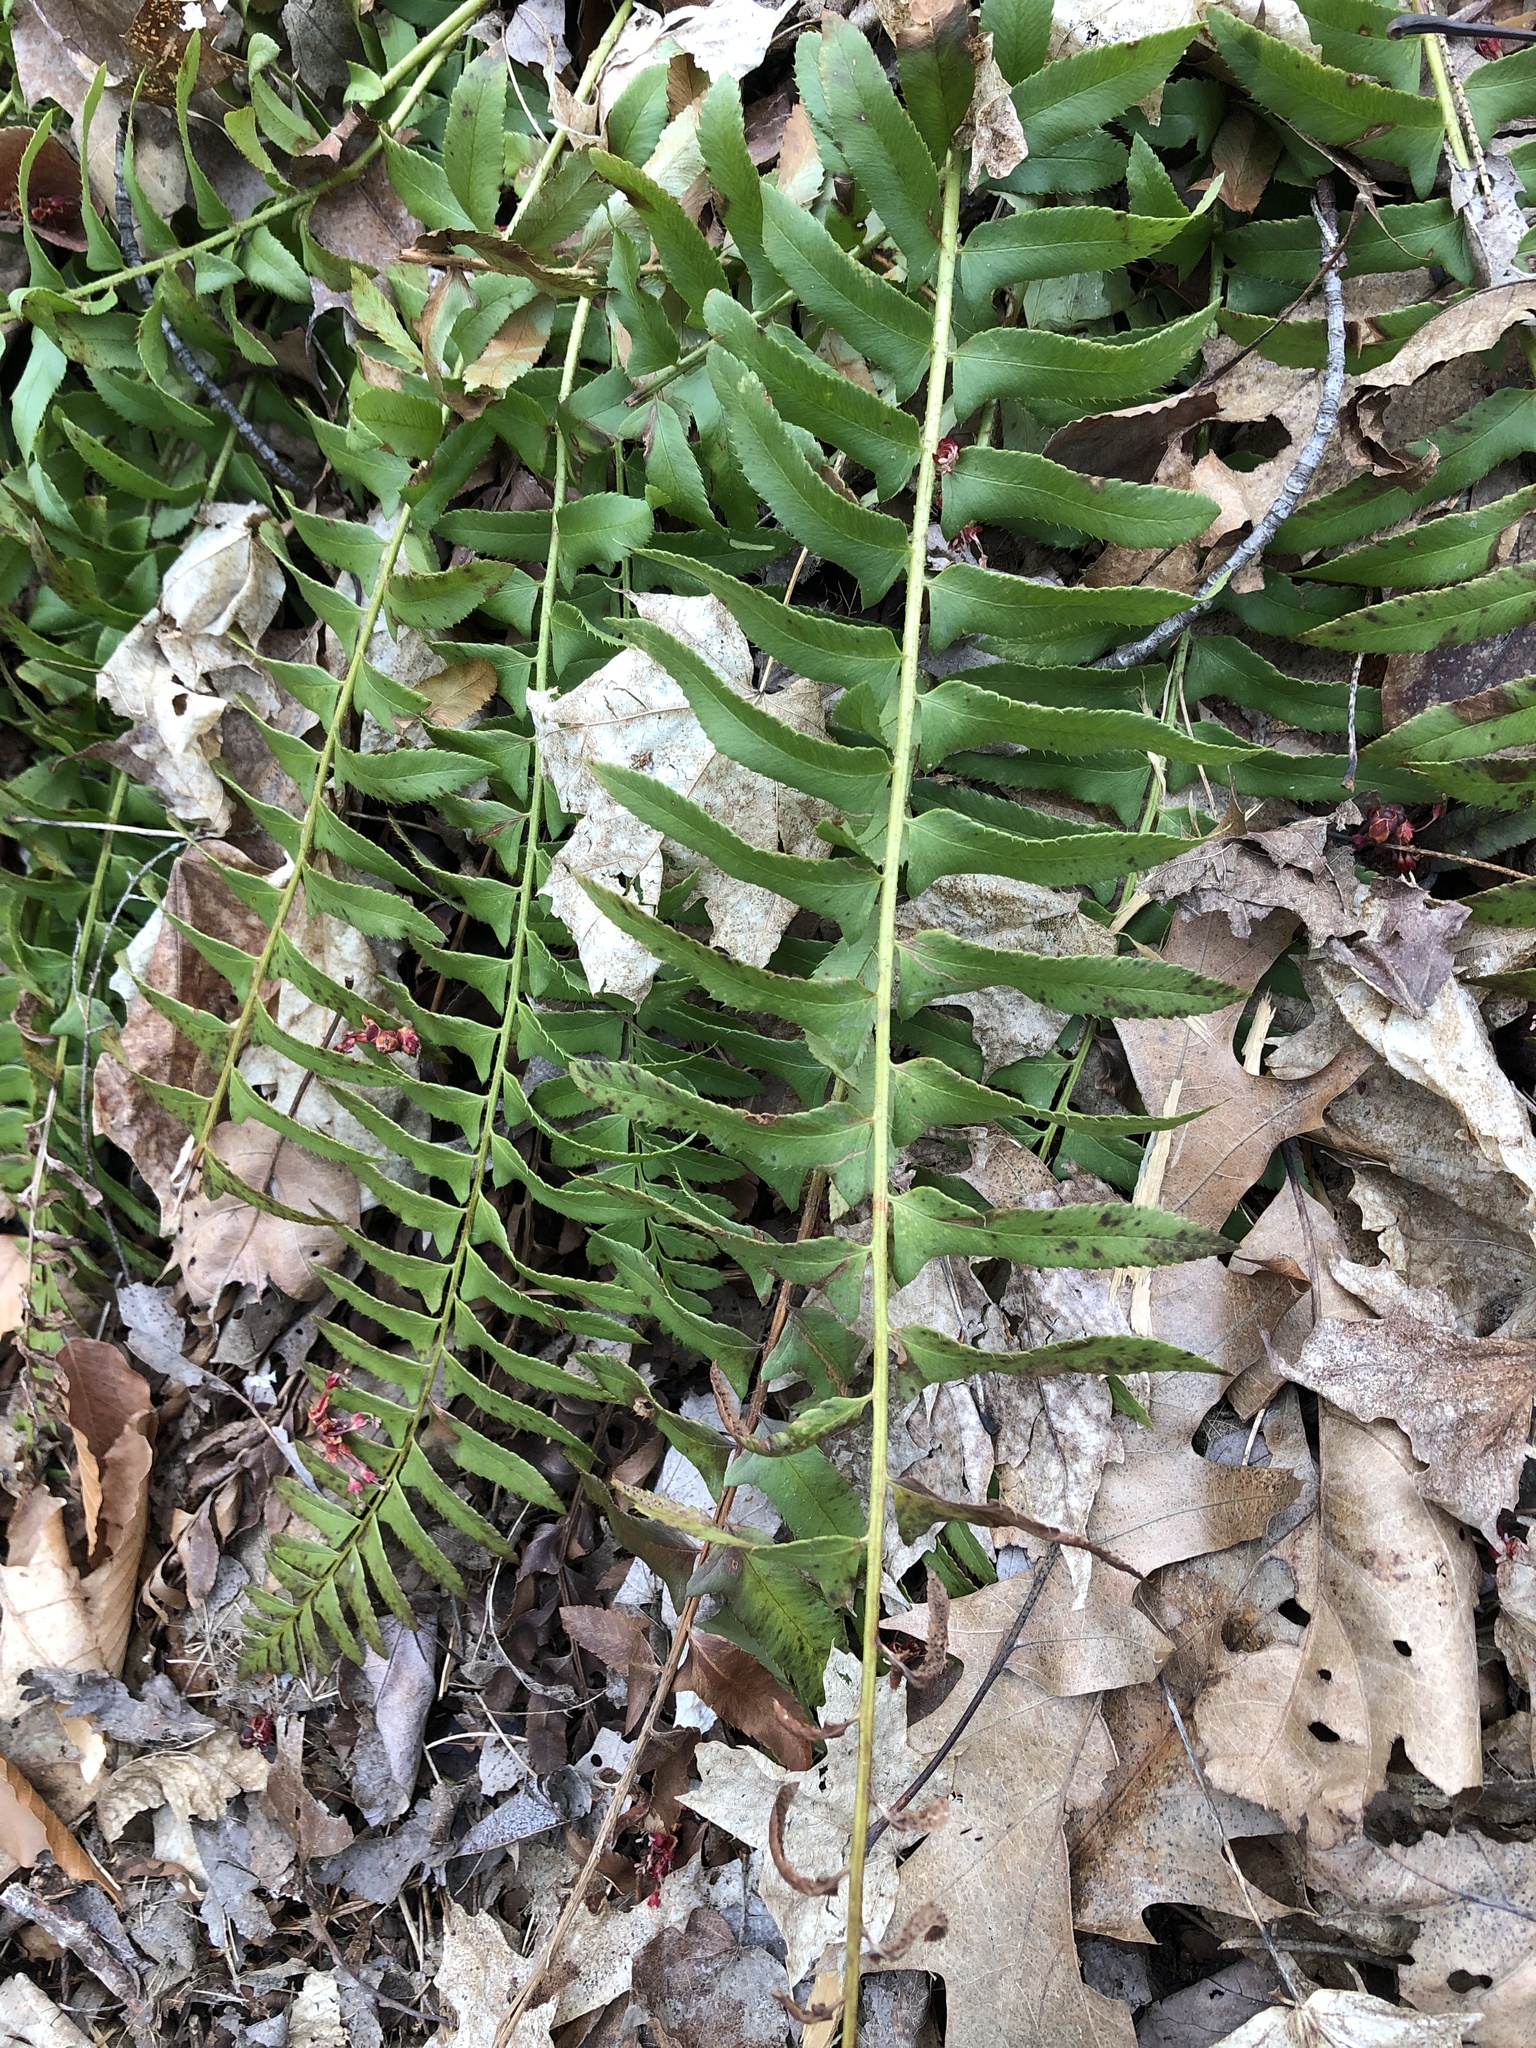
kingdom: Plantae
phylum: Tracheophyta
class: Polypodiopsida
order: Polypodiales
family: Dryopteridaceae
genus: Polystichum
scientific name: Polystichum acrostichoides
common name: Christmas fern
